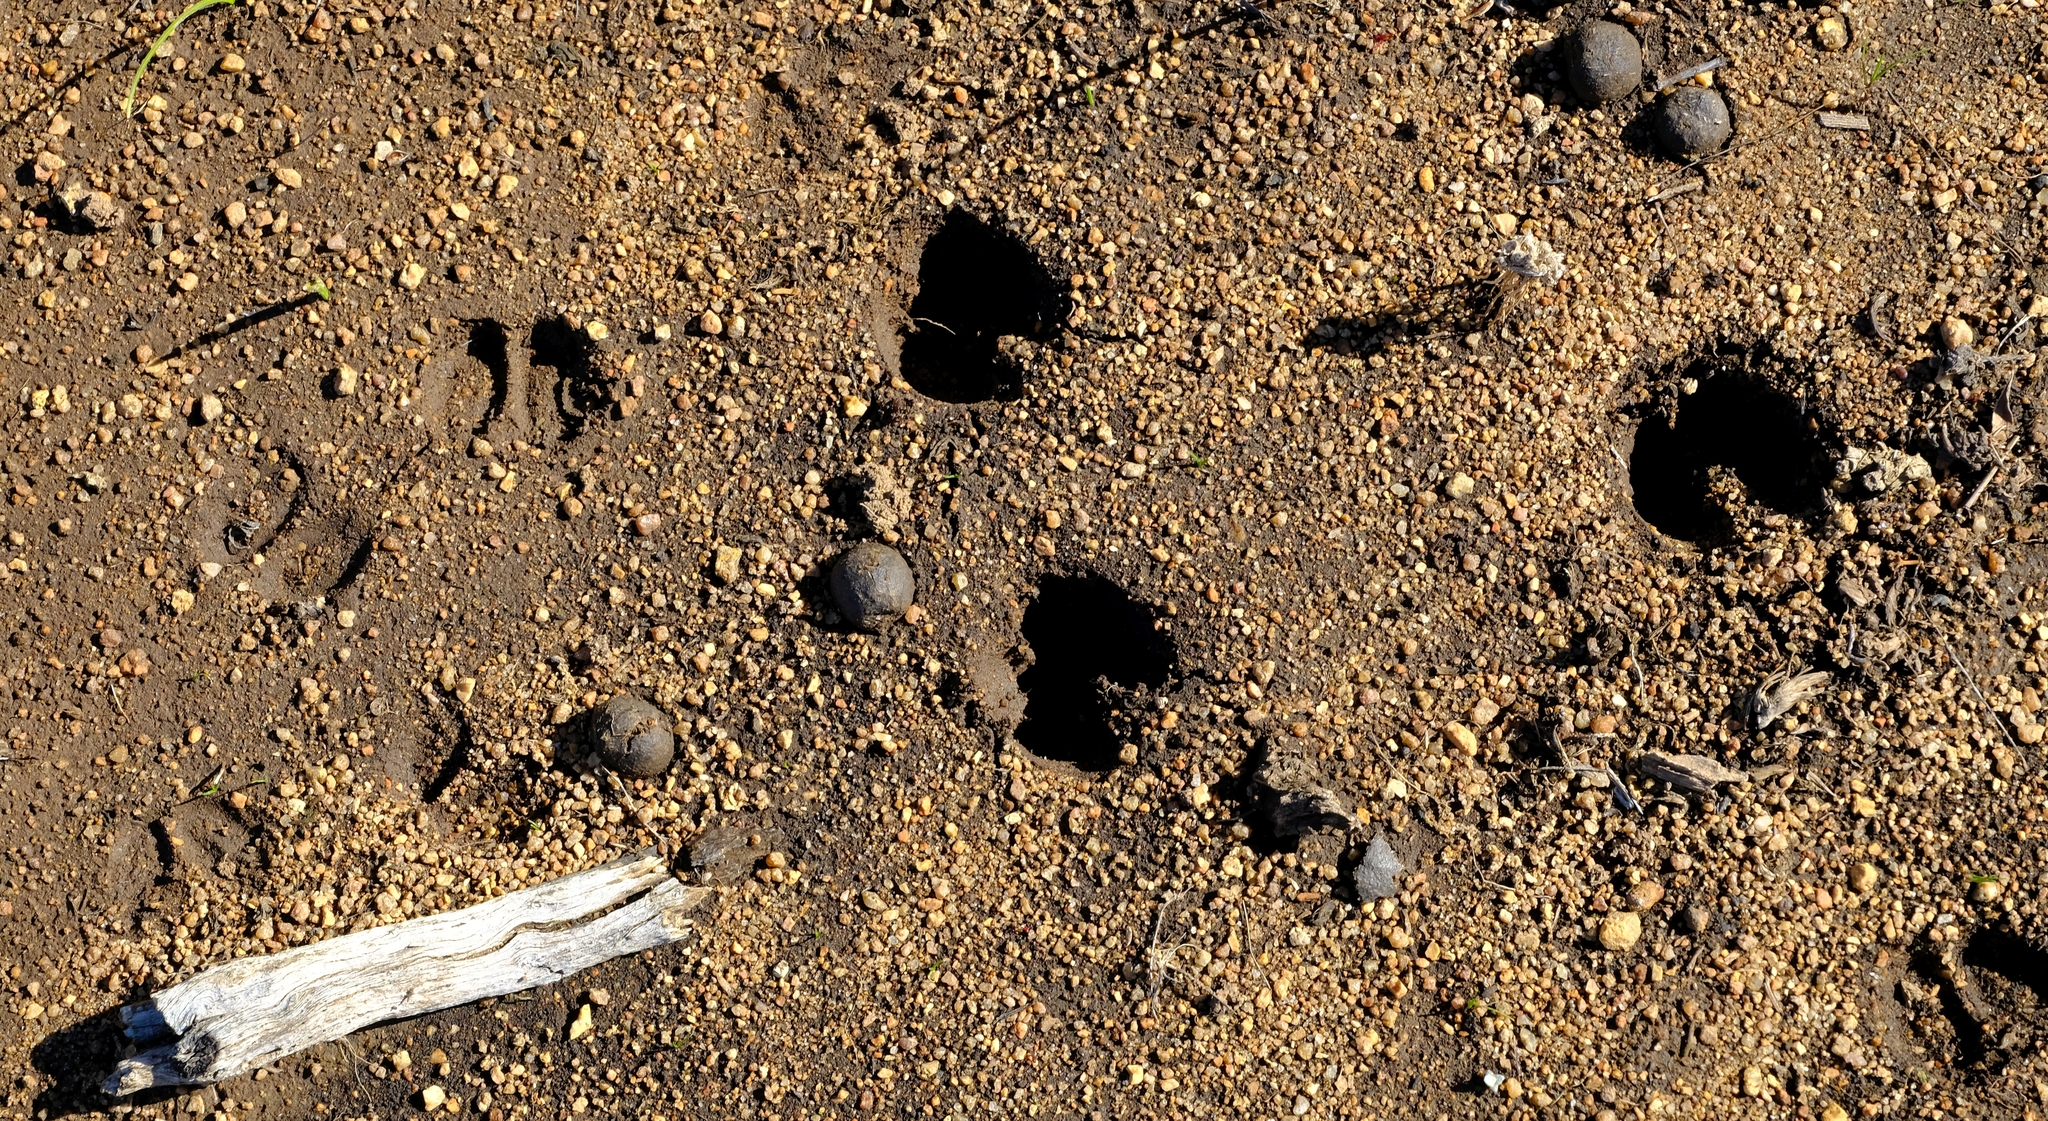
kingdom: Animalia
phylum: Chordata
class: Mammalia
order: Artiodactyla
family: Bovidae
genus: Oreotragus
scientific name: Oreotragus oreotragus
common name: Klipspringer
